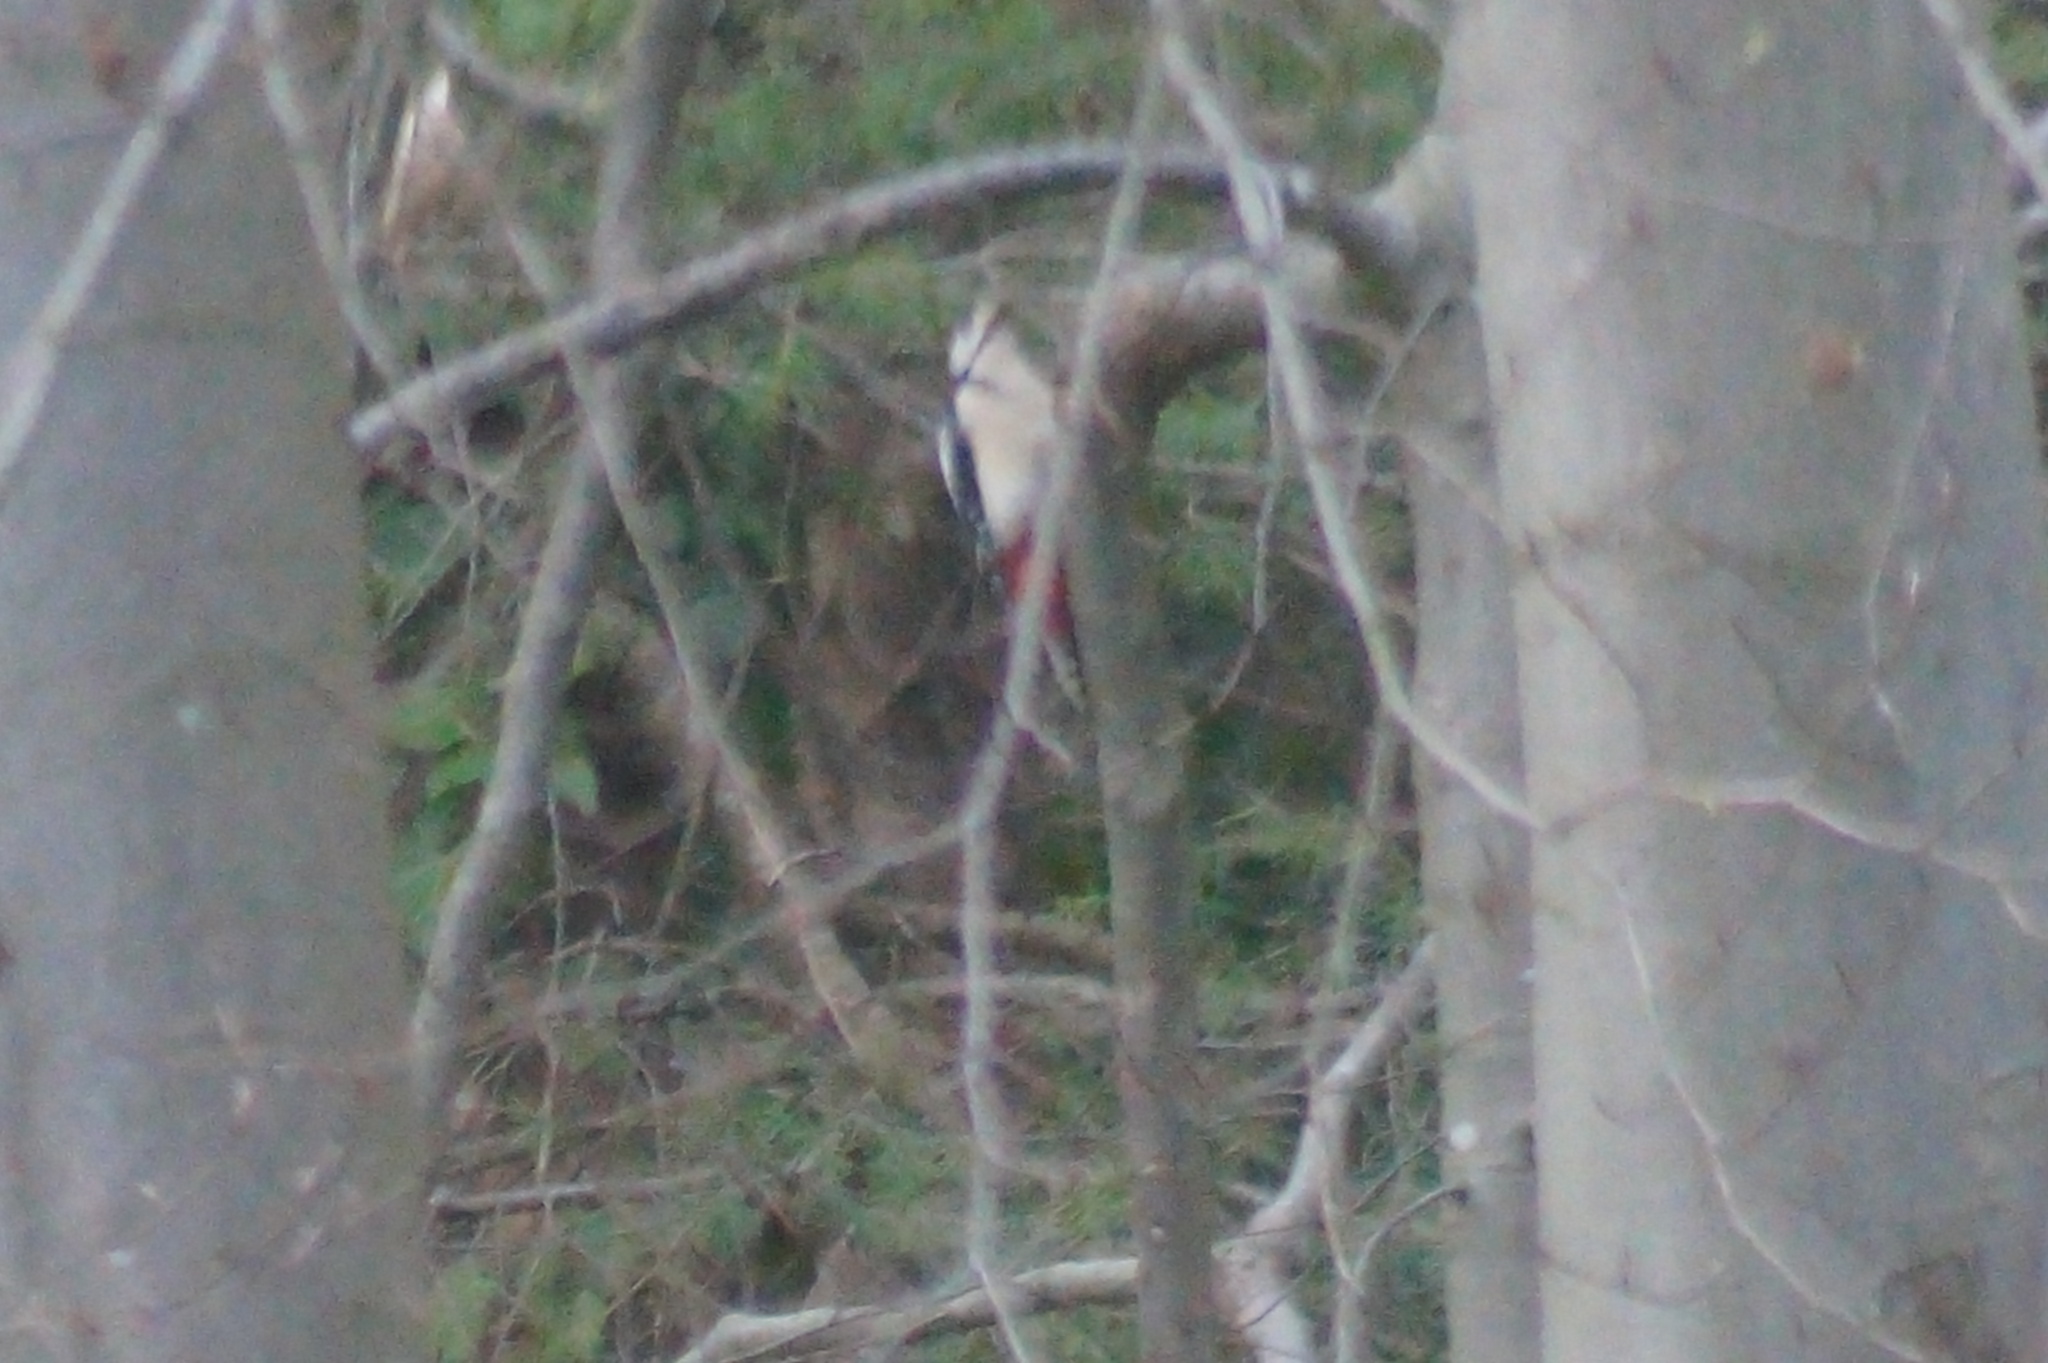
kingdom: Animalia
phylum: Chordata
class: Aves
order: Piciformes
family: Picidae
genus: Dendrocopos
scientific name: Dendrocopos major
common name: Great spotted woodpecker
